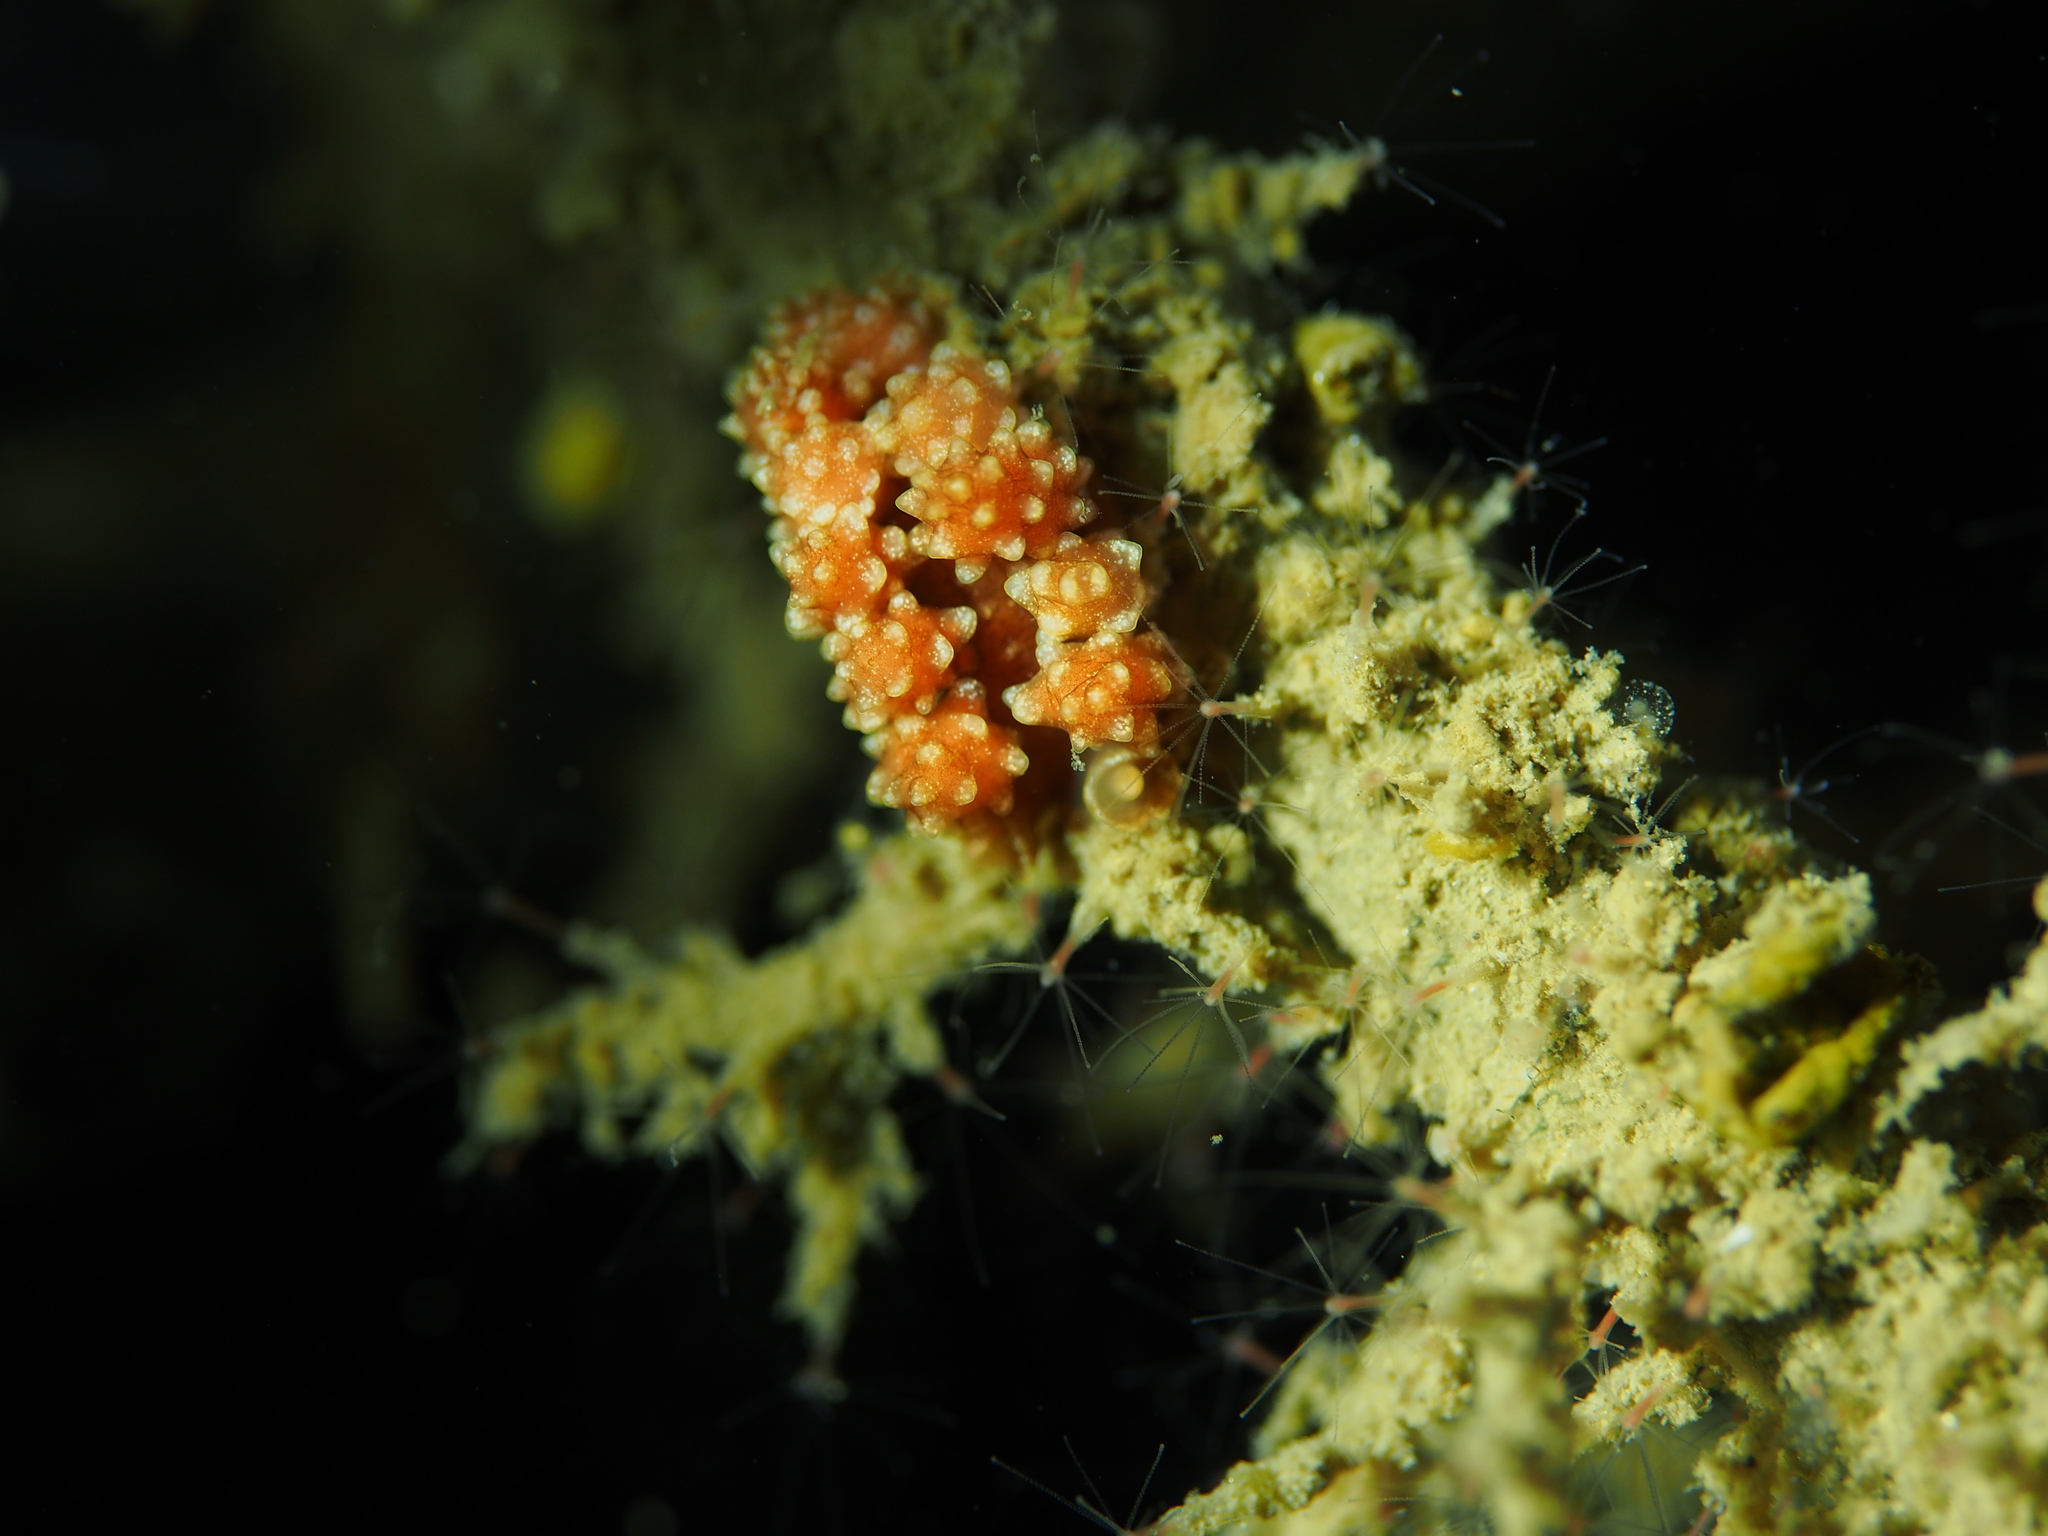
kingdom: Animalia
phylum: Mollusca
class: Gastropoda
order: Nudibranchia
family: Dotidae
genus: Doto
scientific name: Doto fragilis
